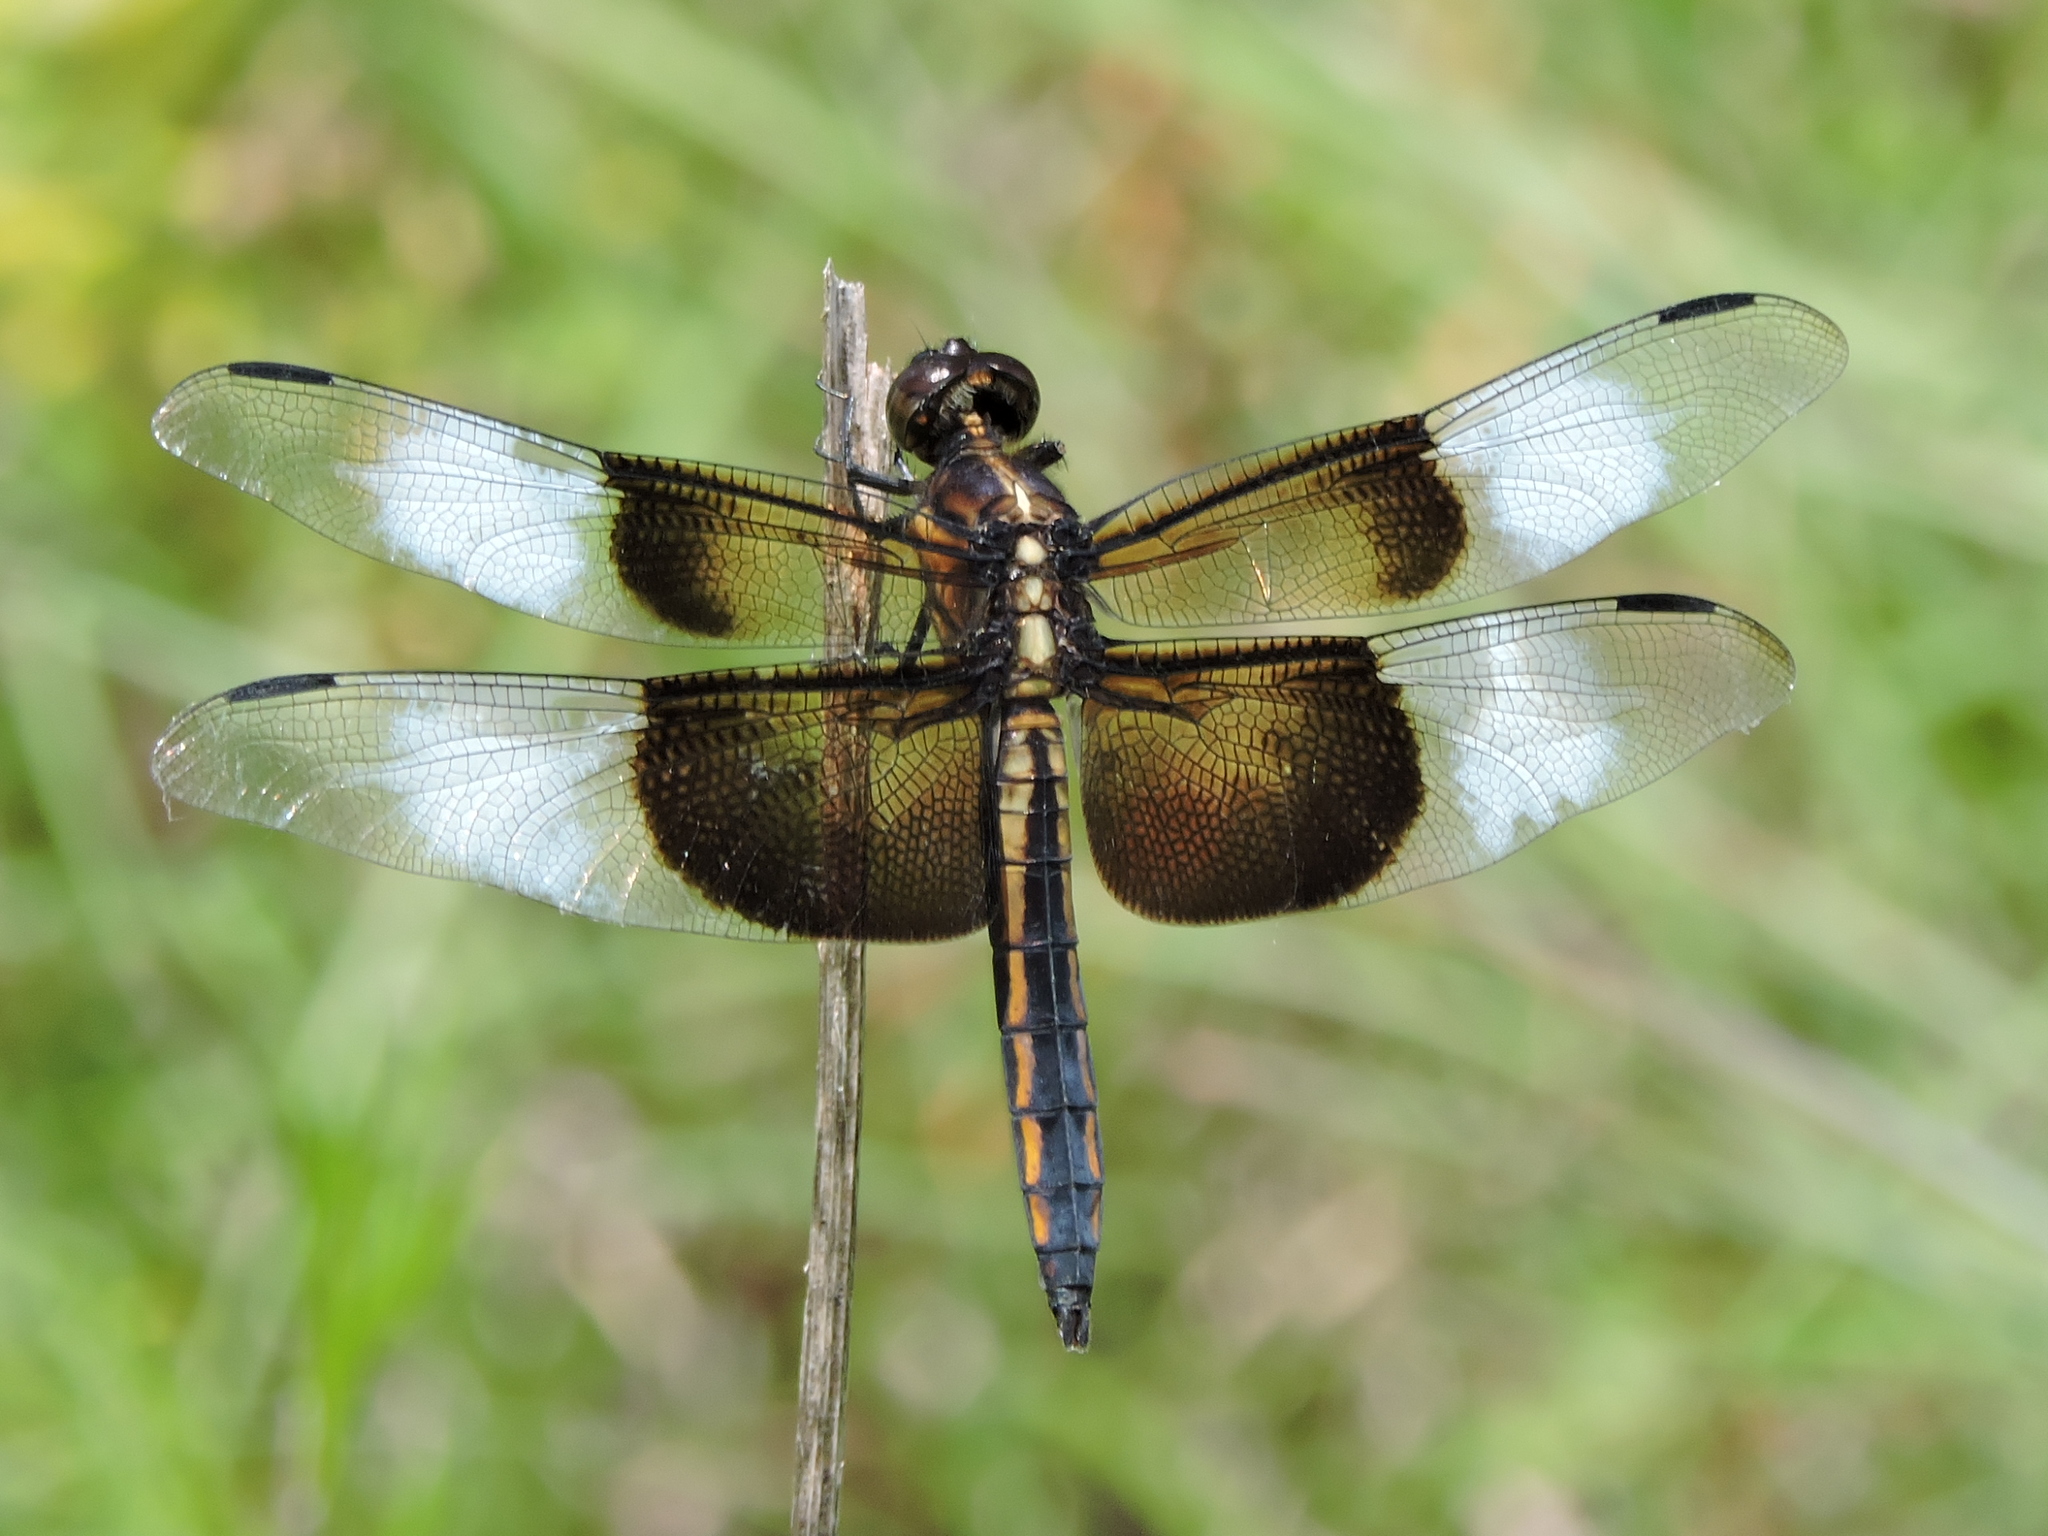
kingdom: Animalia
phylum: Arthropoda
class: Insecta
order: Odonata
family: Libellulidae
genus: Libellula
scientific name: Libellula luctuosa
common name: Widow skimmer
